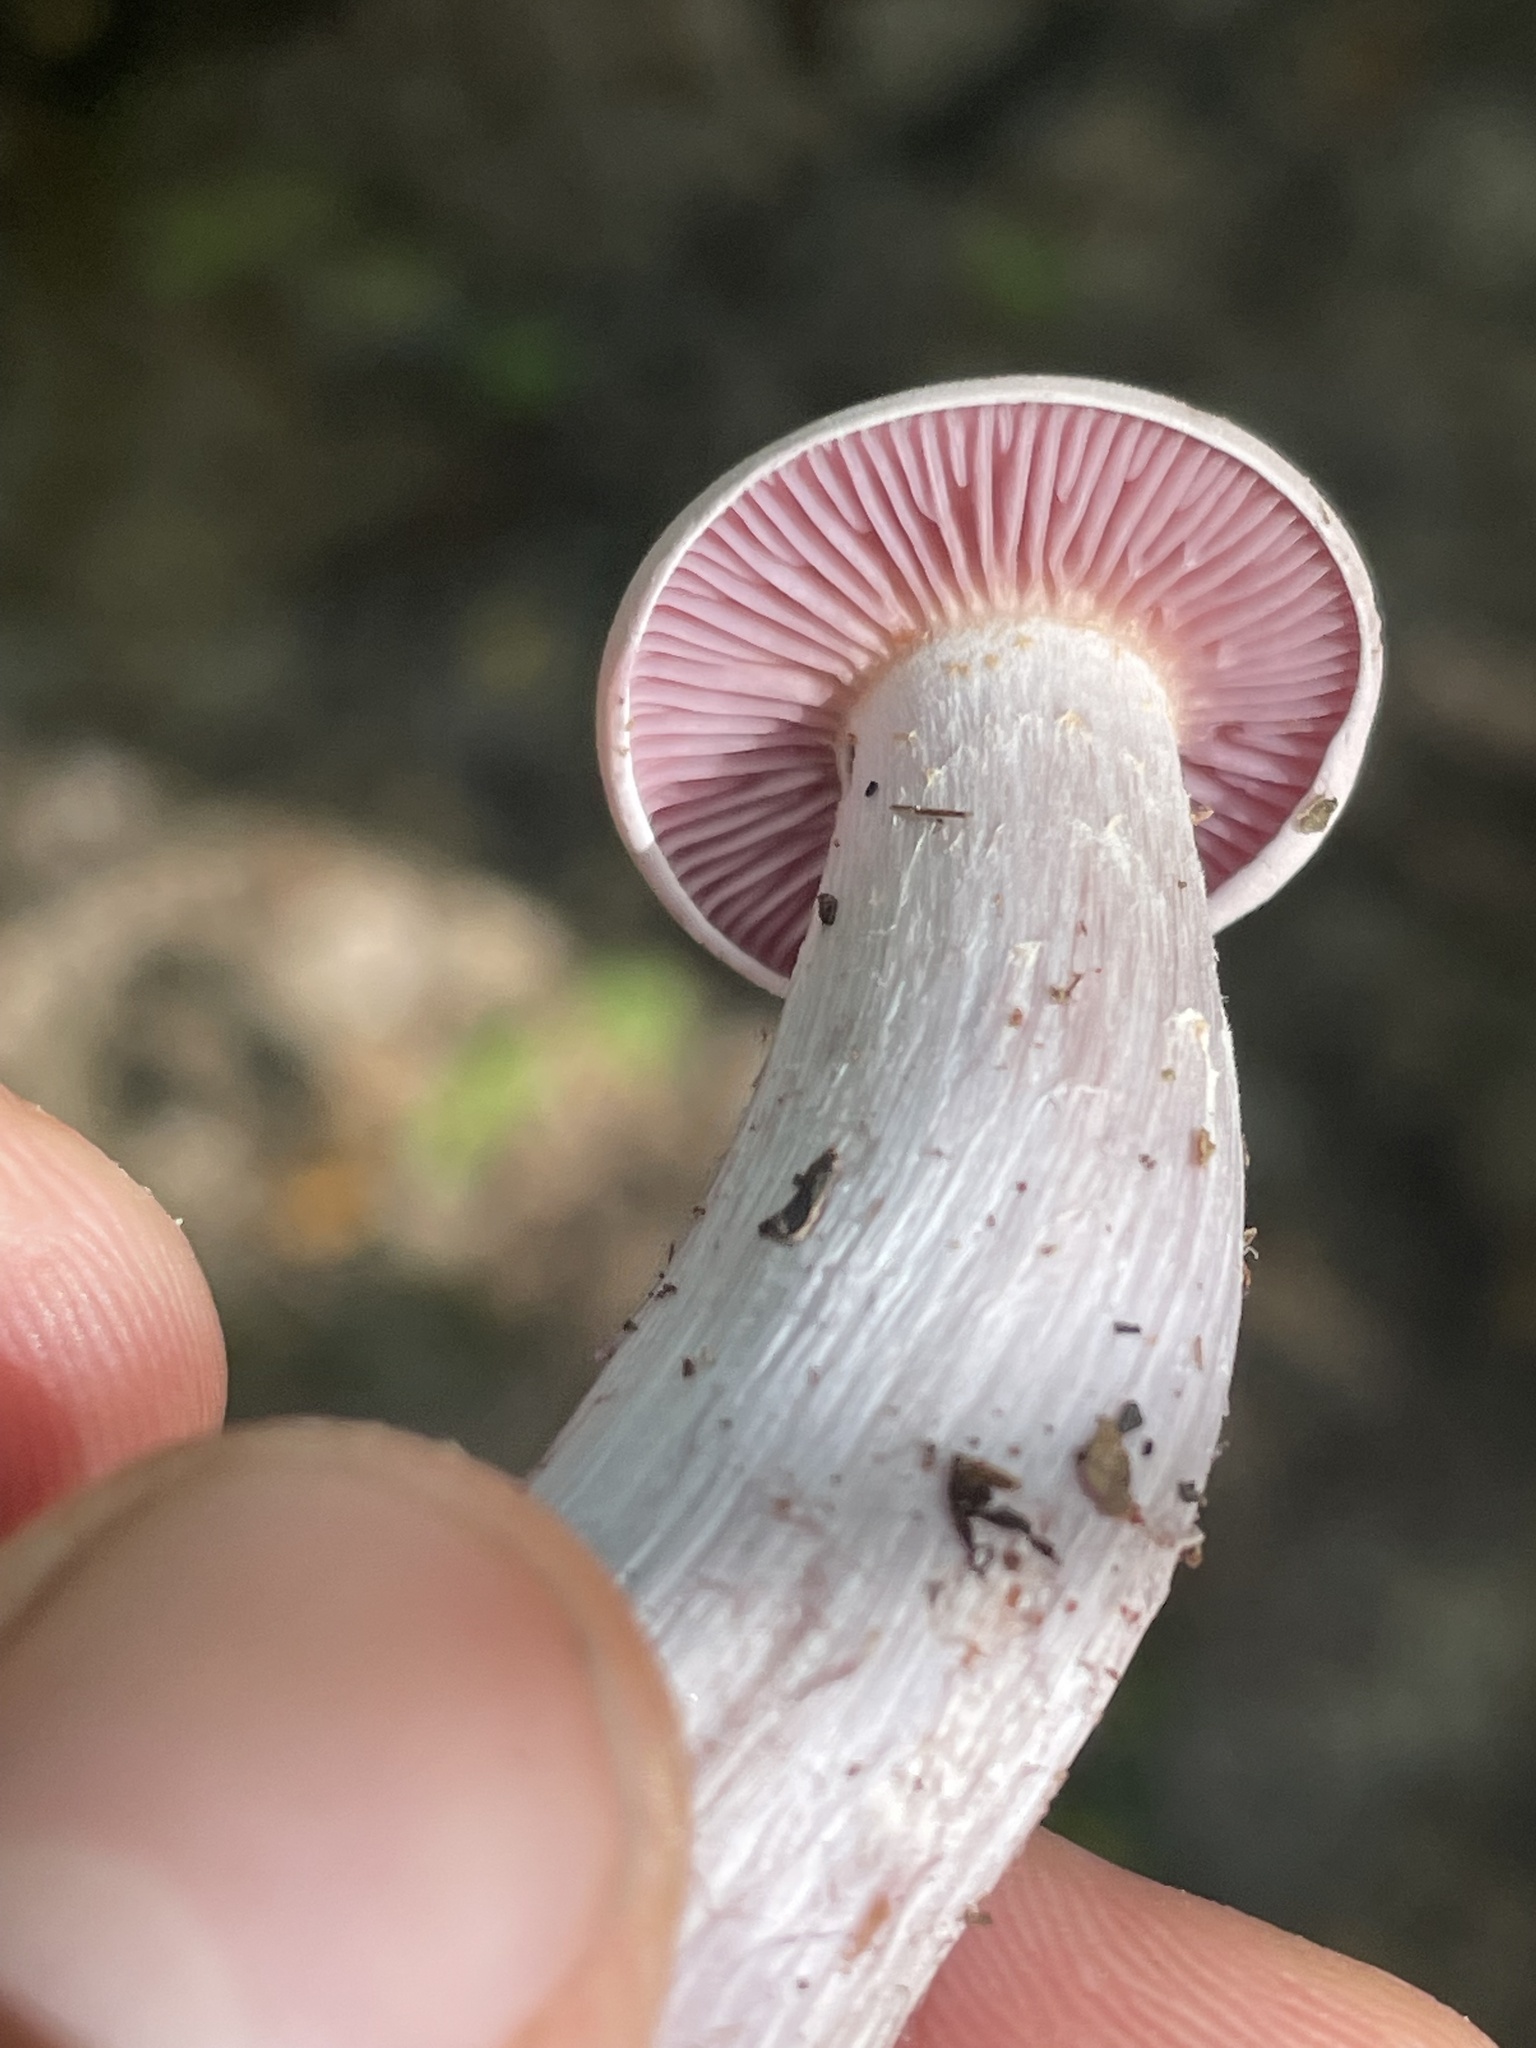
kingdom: Fungi
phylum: Basidiomycota
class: Agaricomycetes
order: Agaricales
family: Hydnangiaceae
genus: Laccaria
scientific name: Laccaria ochropurpurea
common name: Purple laccaria
